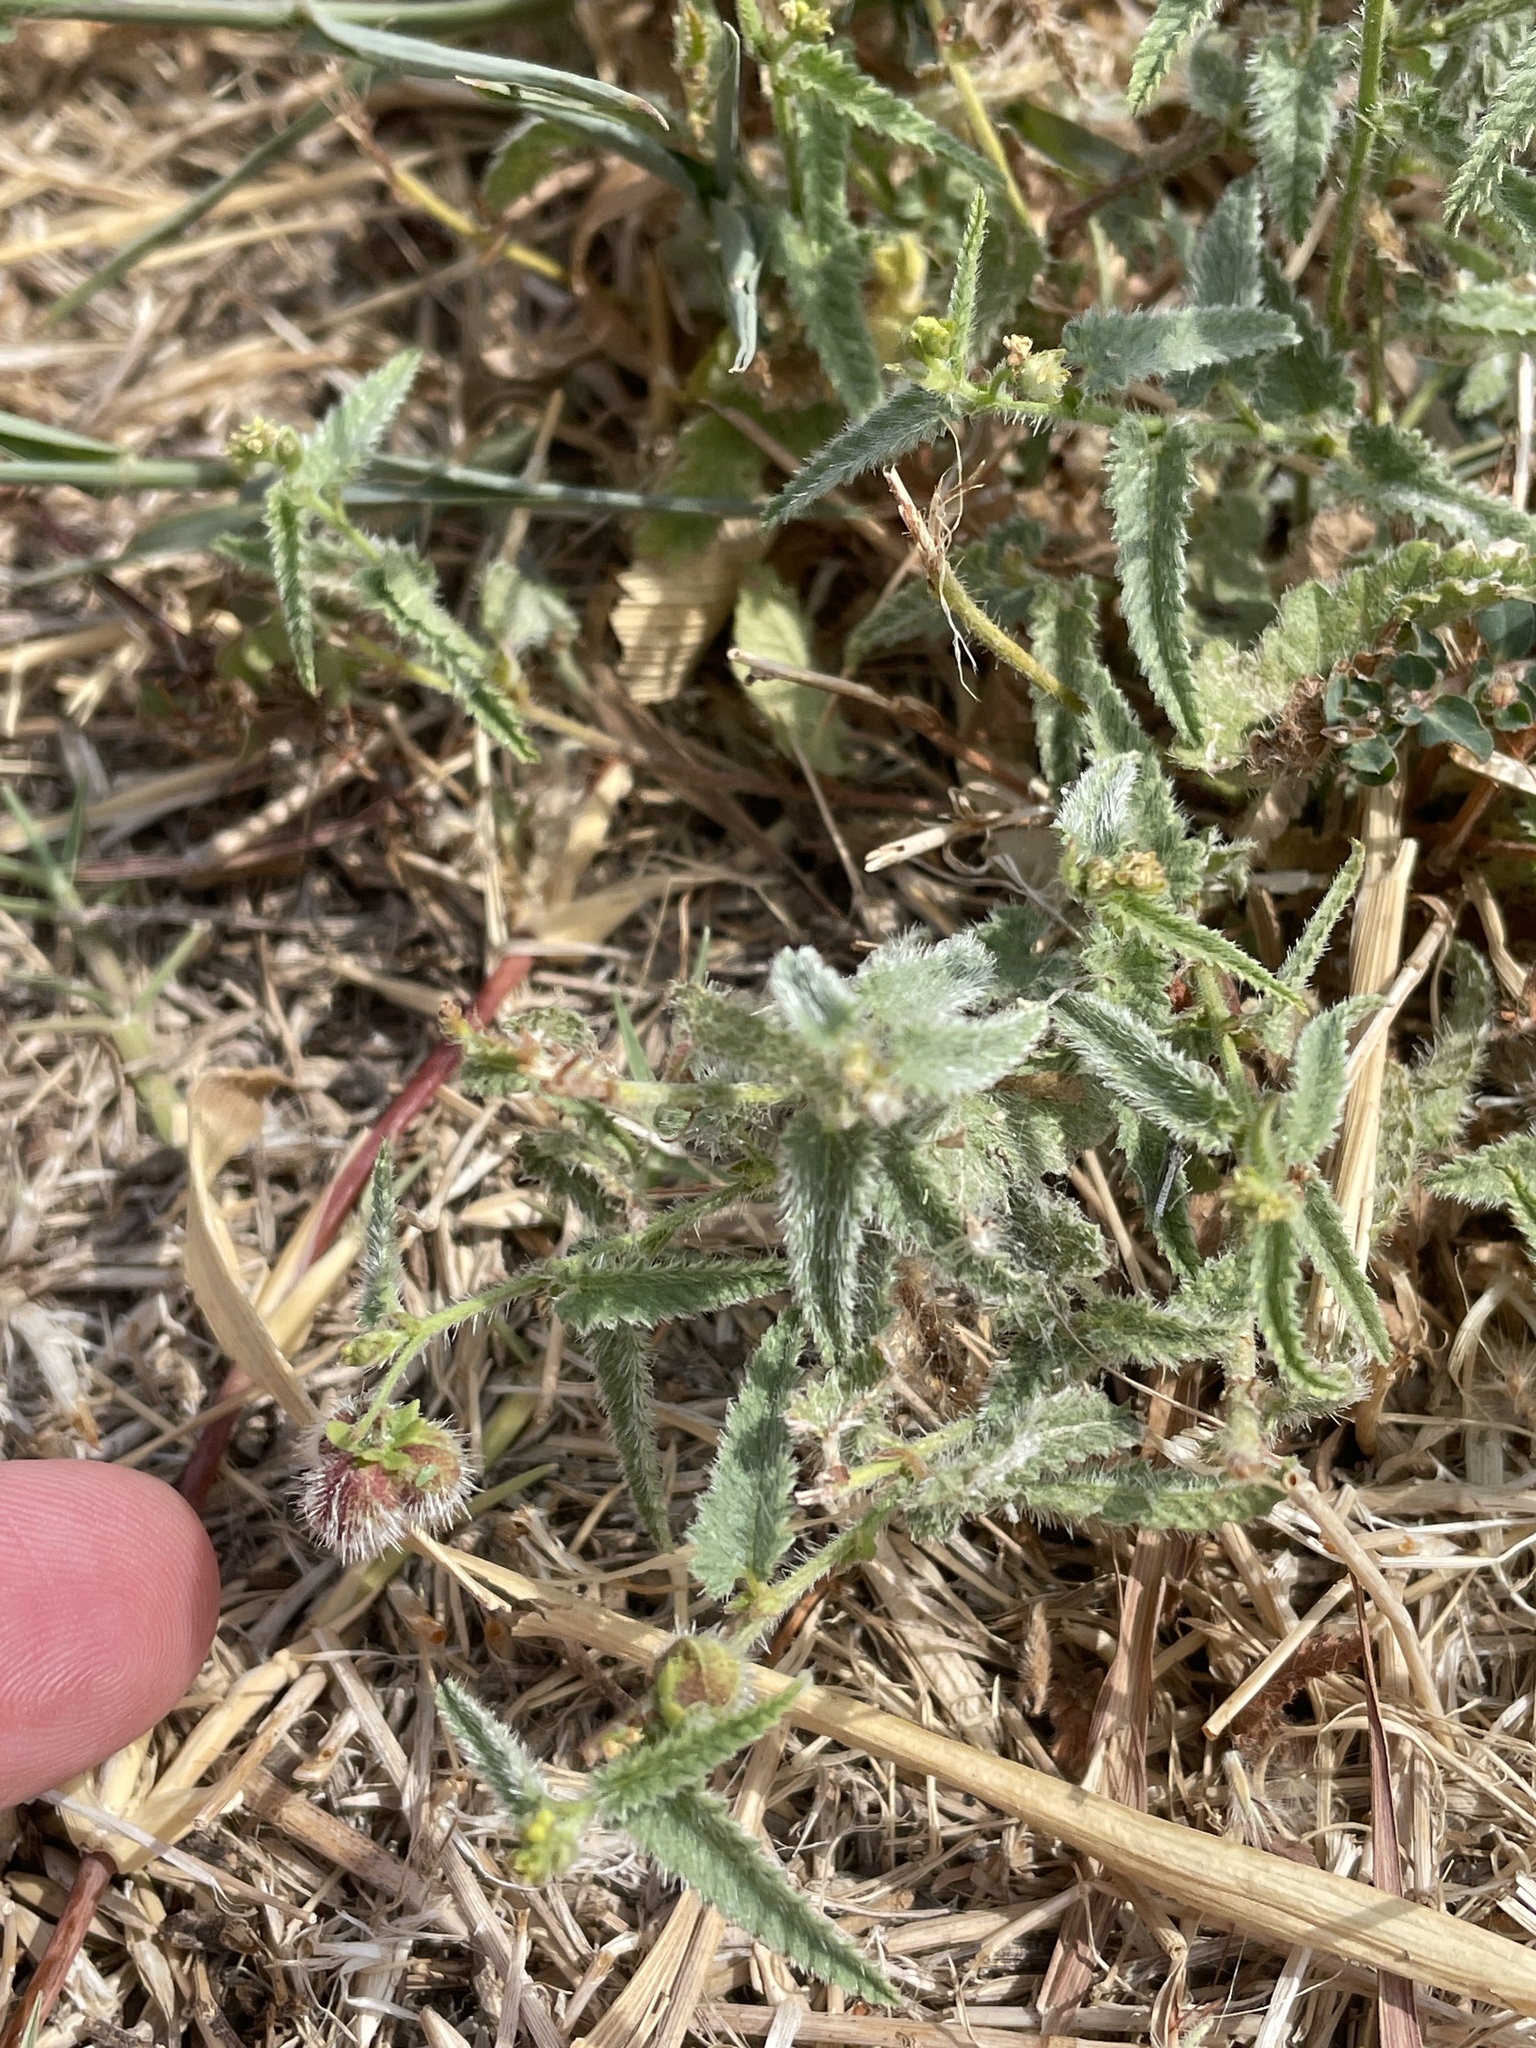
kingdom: Plantae
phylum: Tracheophyta
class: Magnoliopsida
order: Malpighiales
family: Euphorbiaceae
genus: Tragia
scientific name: Tragia ramosa
